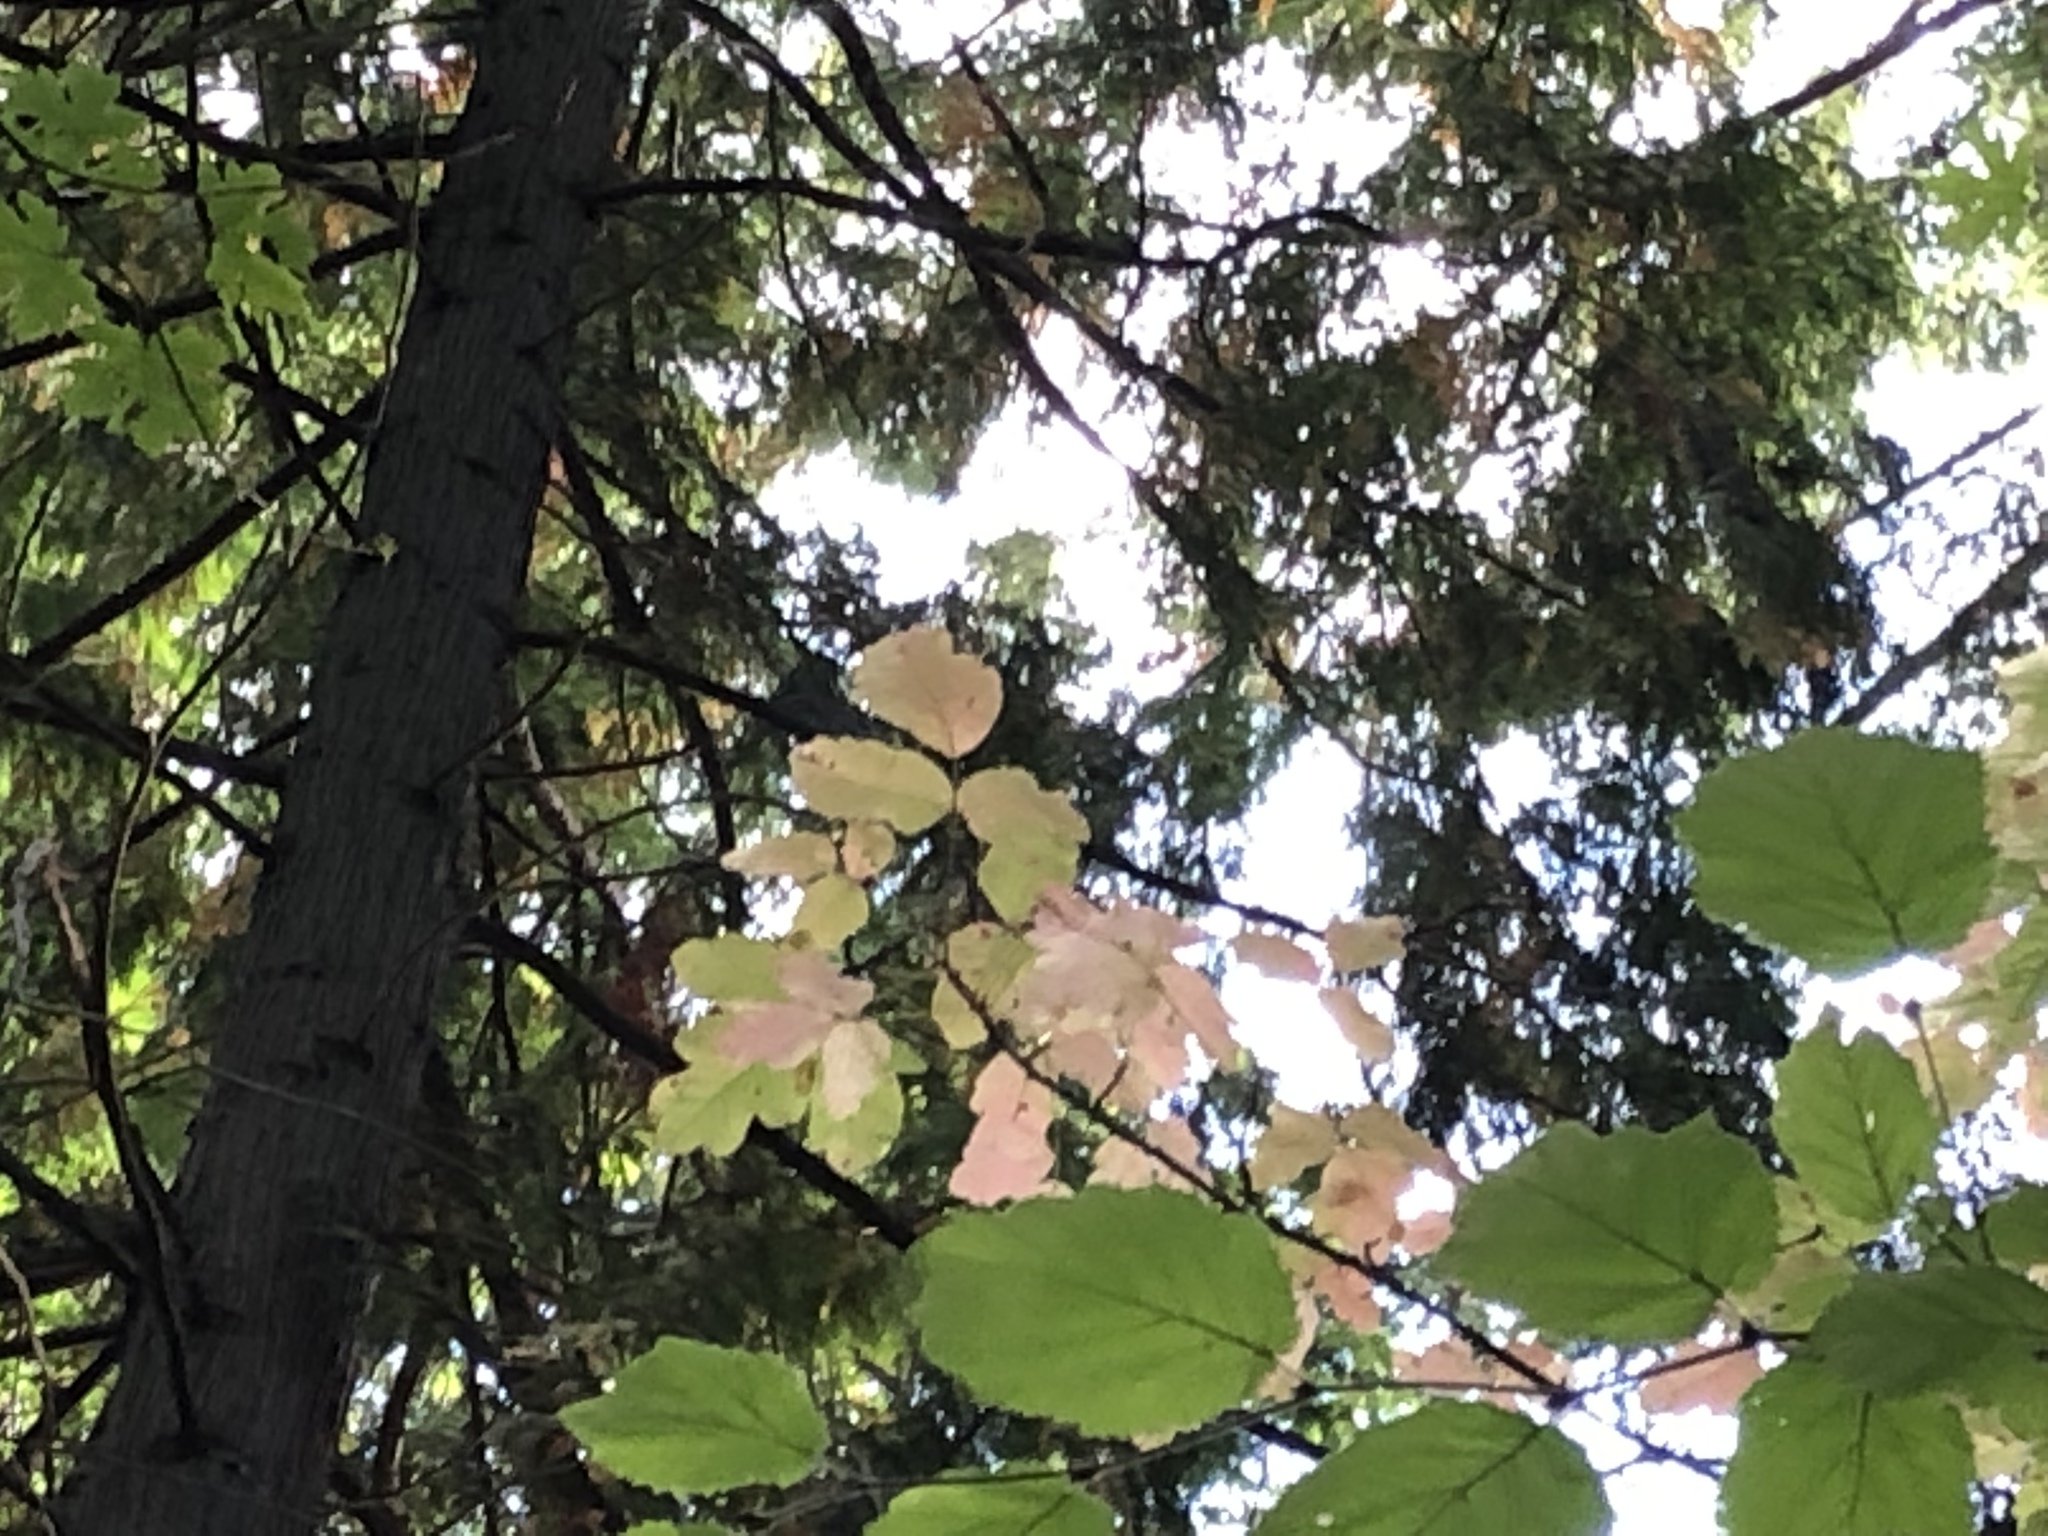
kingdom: Plantae
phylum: Tracheophyta
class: Magnoliopsida
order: Sapindales
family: Anacardiaceae
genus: Toxicodendron
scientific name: Toxicodendron diversilobum
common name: Pacific poison-oak
